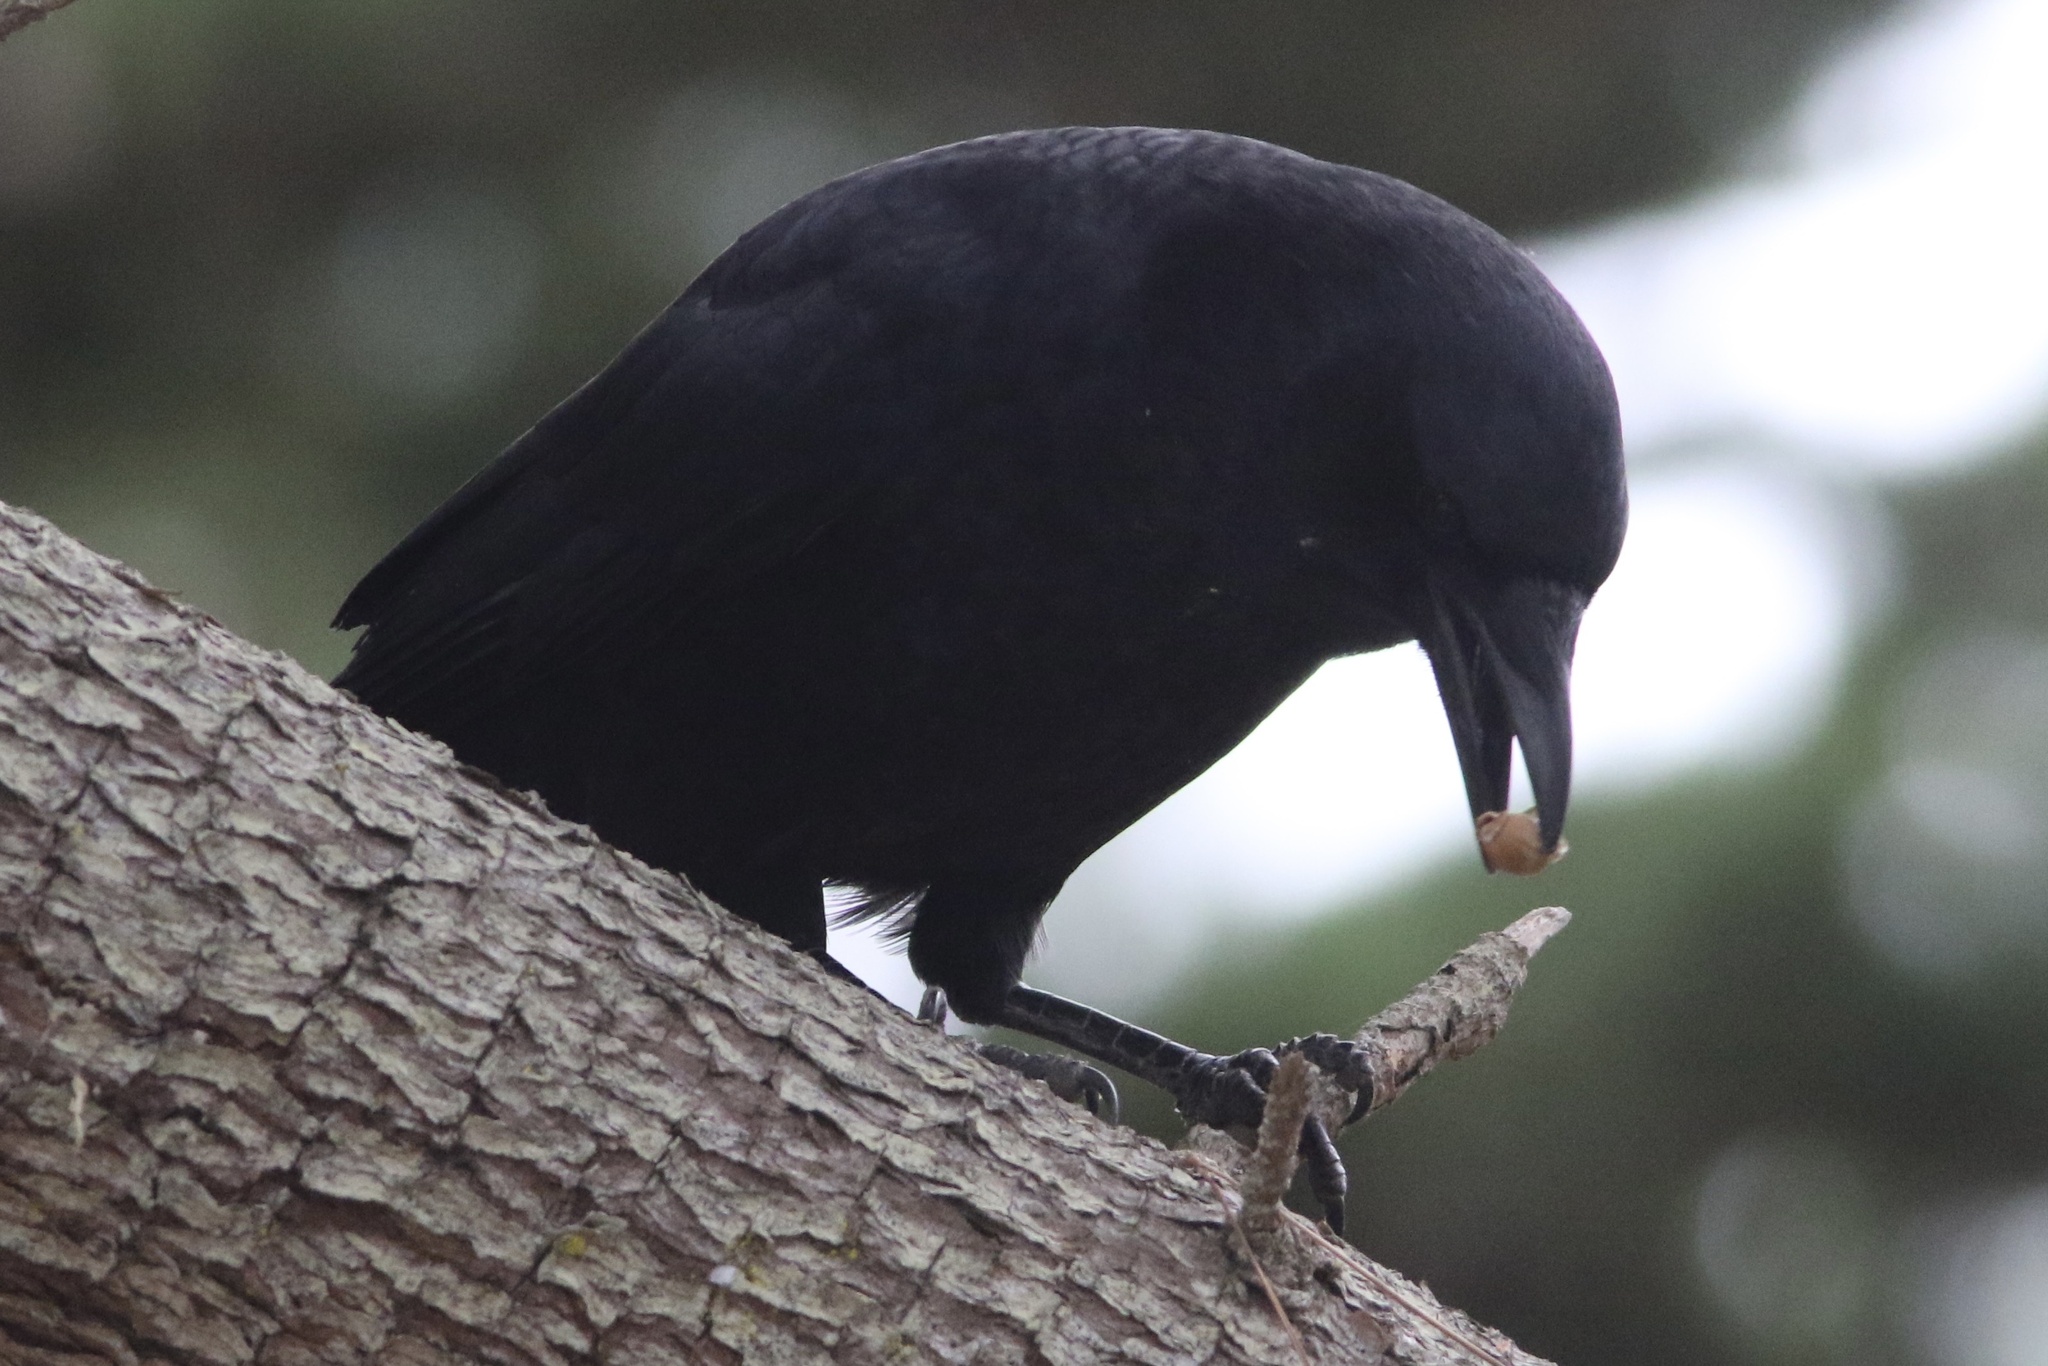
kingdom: Animalia
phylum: Chordata
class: Aves
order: Passeriformes
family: Corvidae
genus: Corvus
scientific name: Corvus brachyrhynchos
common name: American crow
